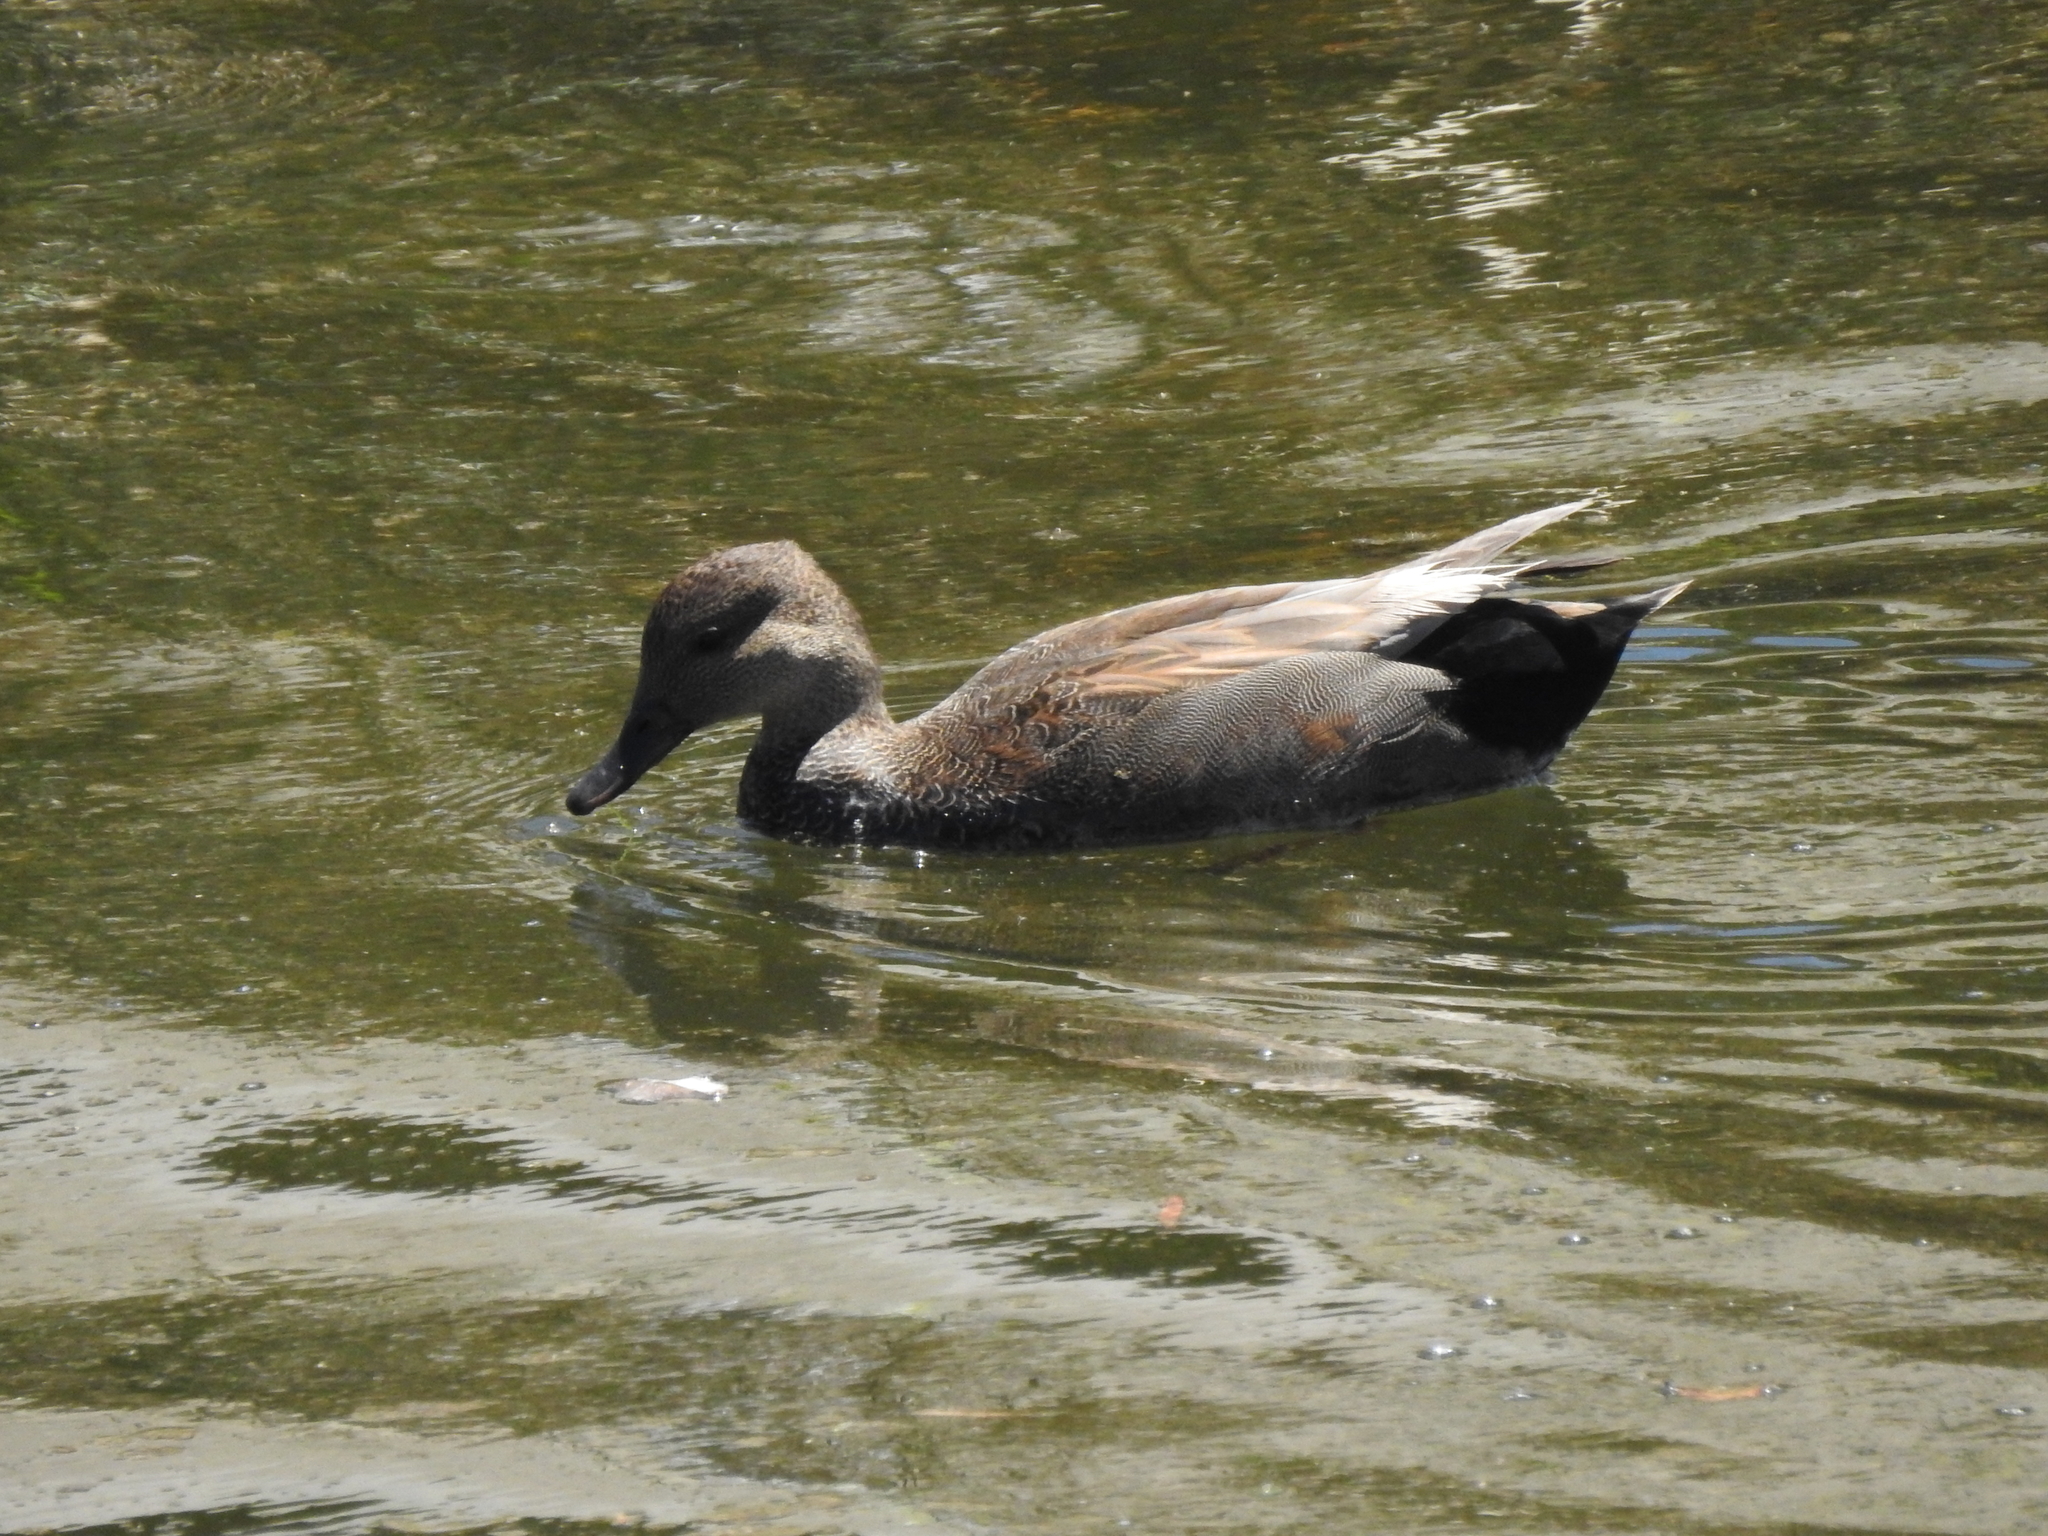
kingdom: Animalia
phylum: Chordata
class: Aves
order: Anseriformes
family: Anatidae
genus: Mareca
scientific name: Mareca strepera
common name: Gadwall
